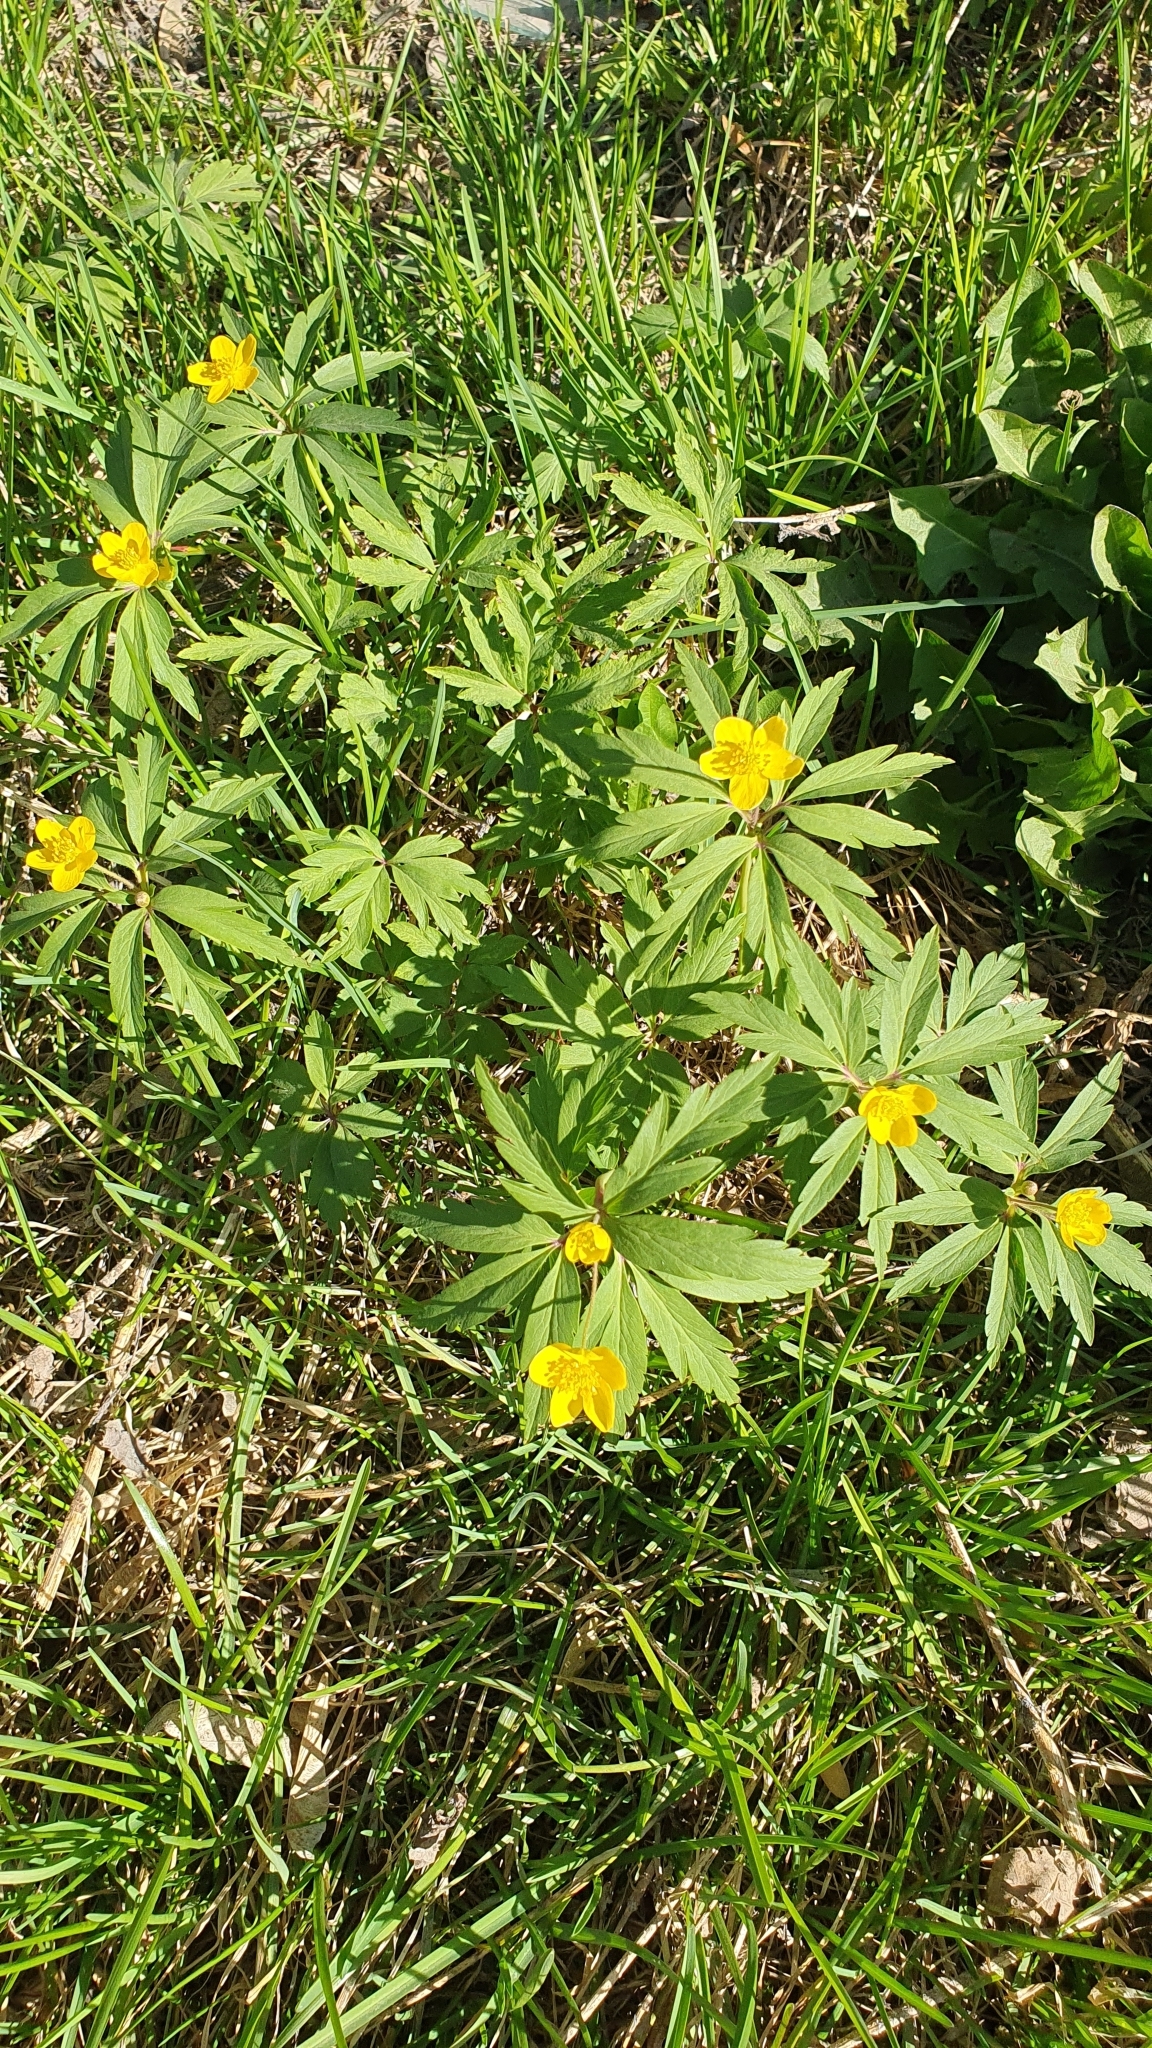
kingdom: Plantae
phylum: Tracheophyta
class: Magnoliopsida
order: Ranunculales
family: Ranunculaceae
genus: Anemone
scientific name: Anemone ranunculoides
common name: Yellow anemone
